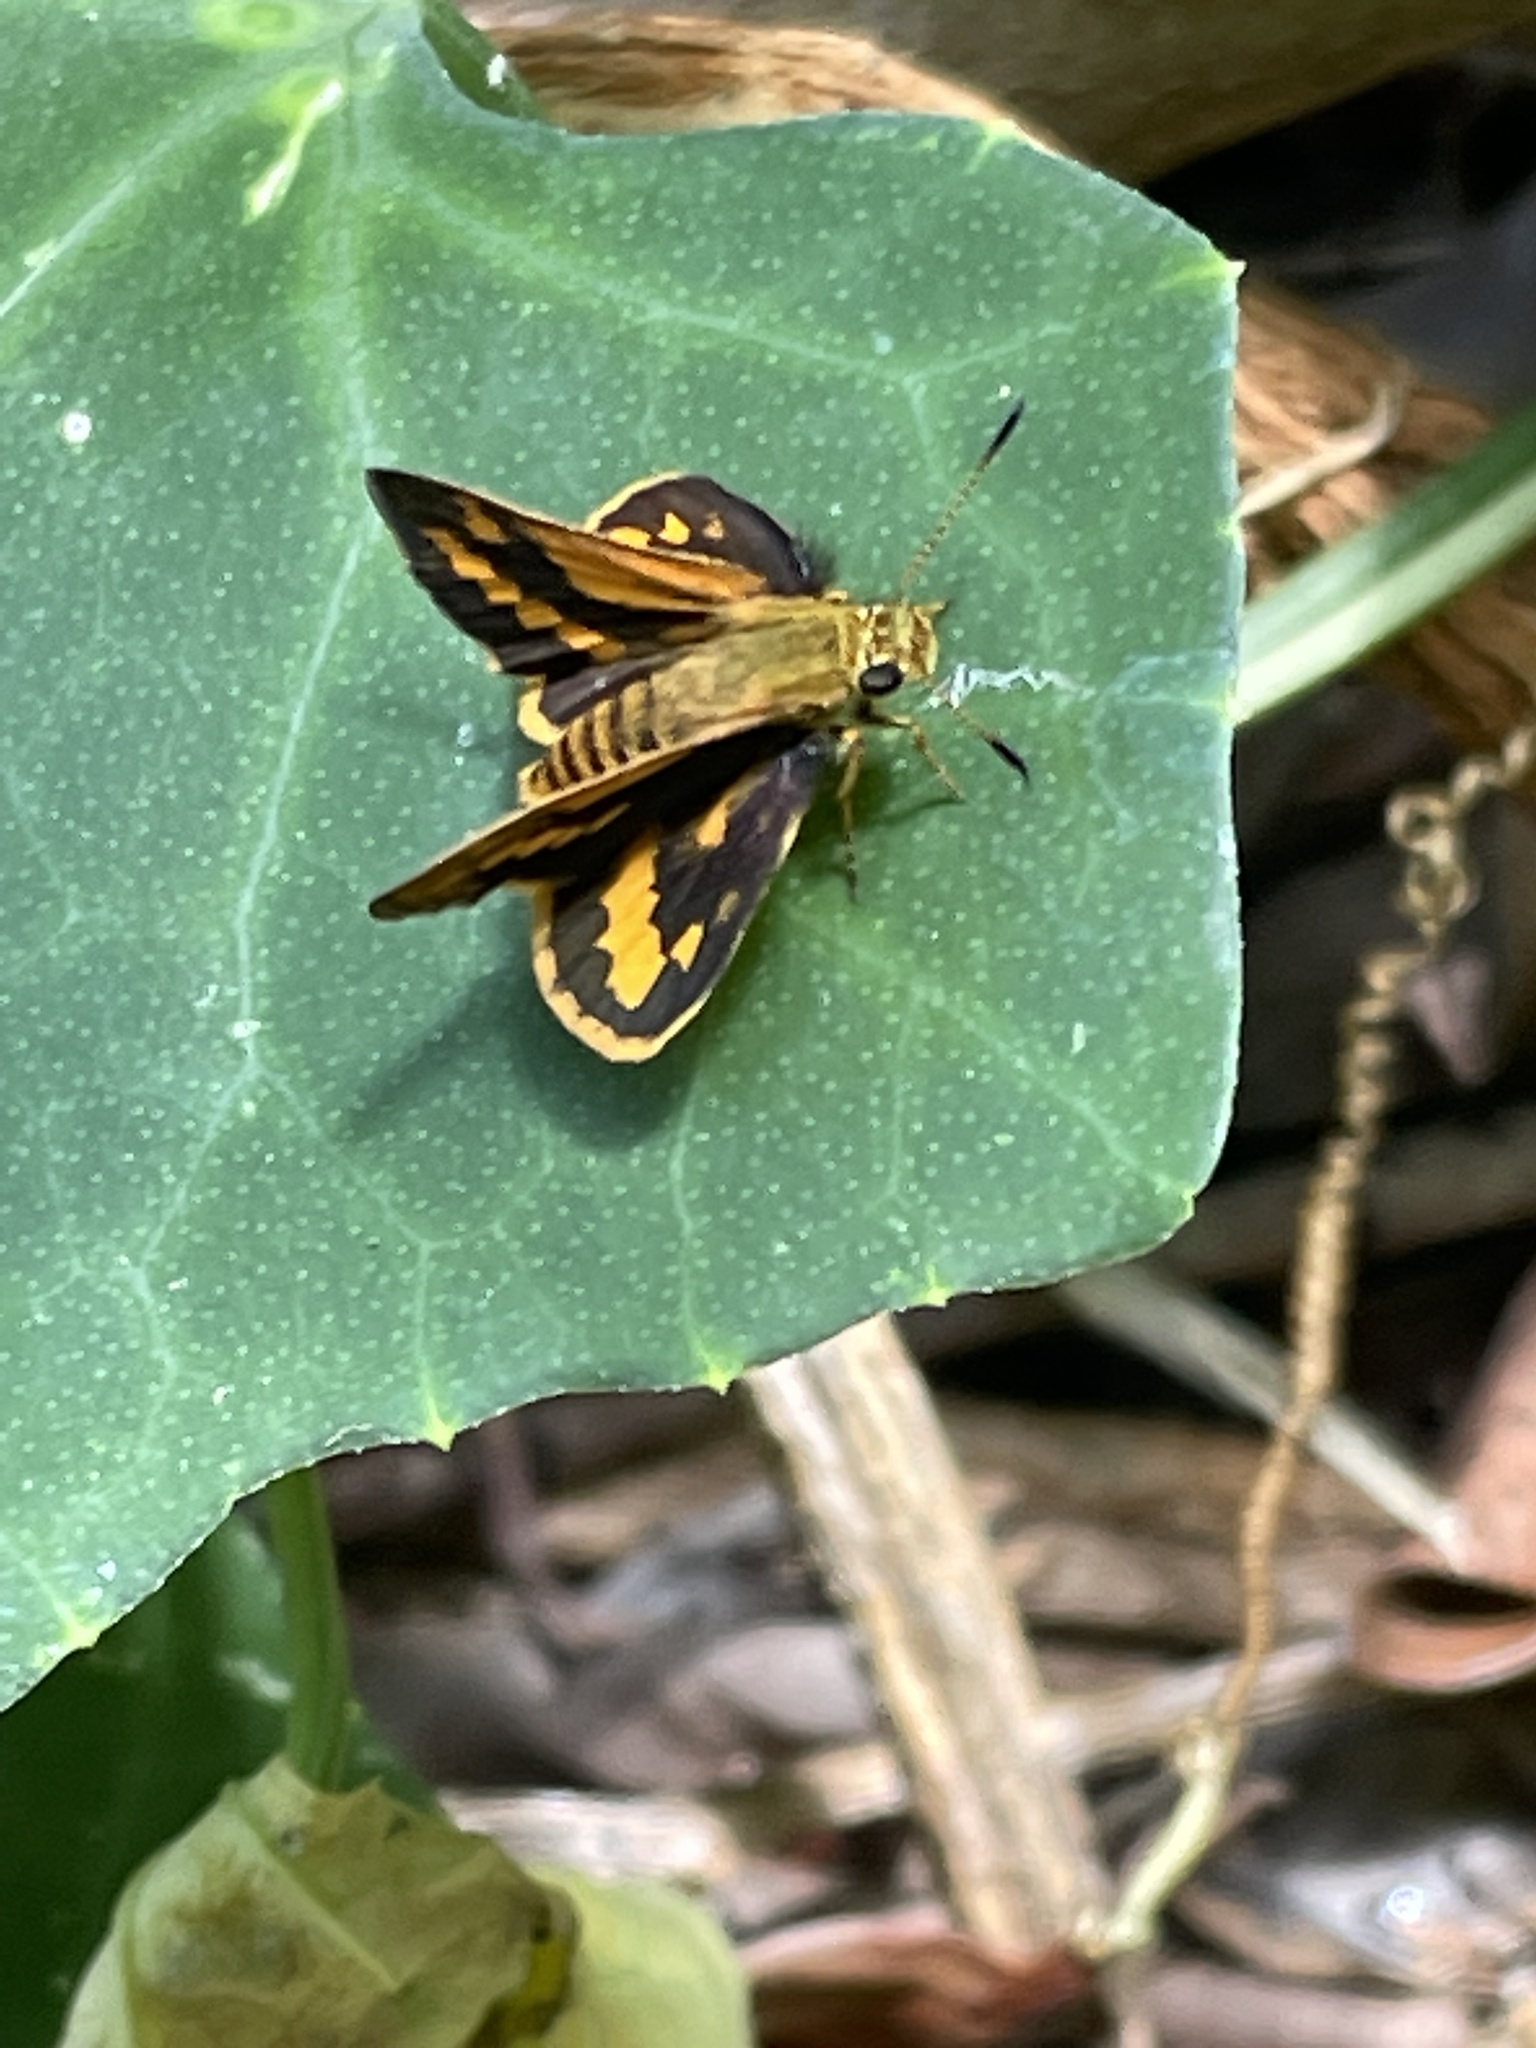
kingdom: Animalia
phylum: Arthropoda
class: Insecta
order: Lepidoptera
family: Hesperiidae
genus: Suniana
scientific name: Suniana sunias
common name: Wide-brand grass-dart
